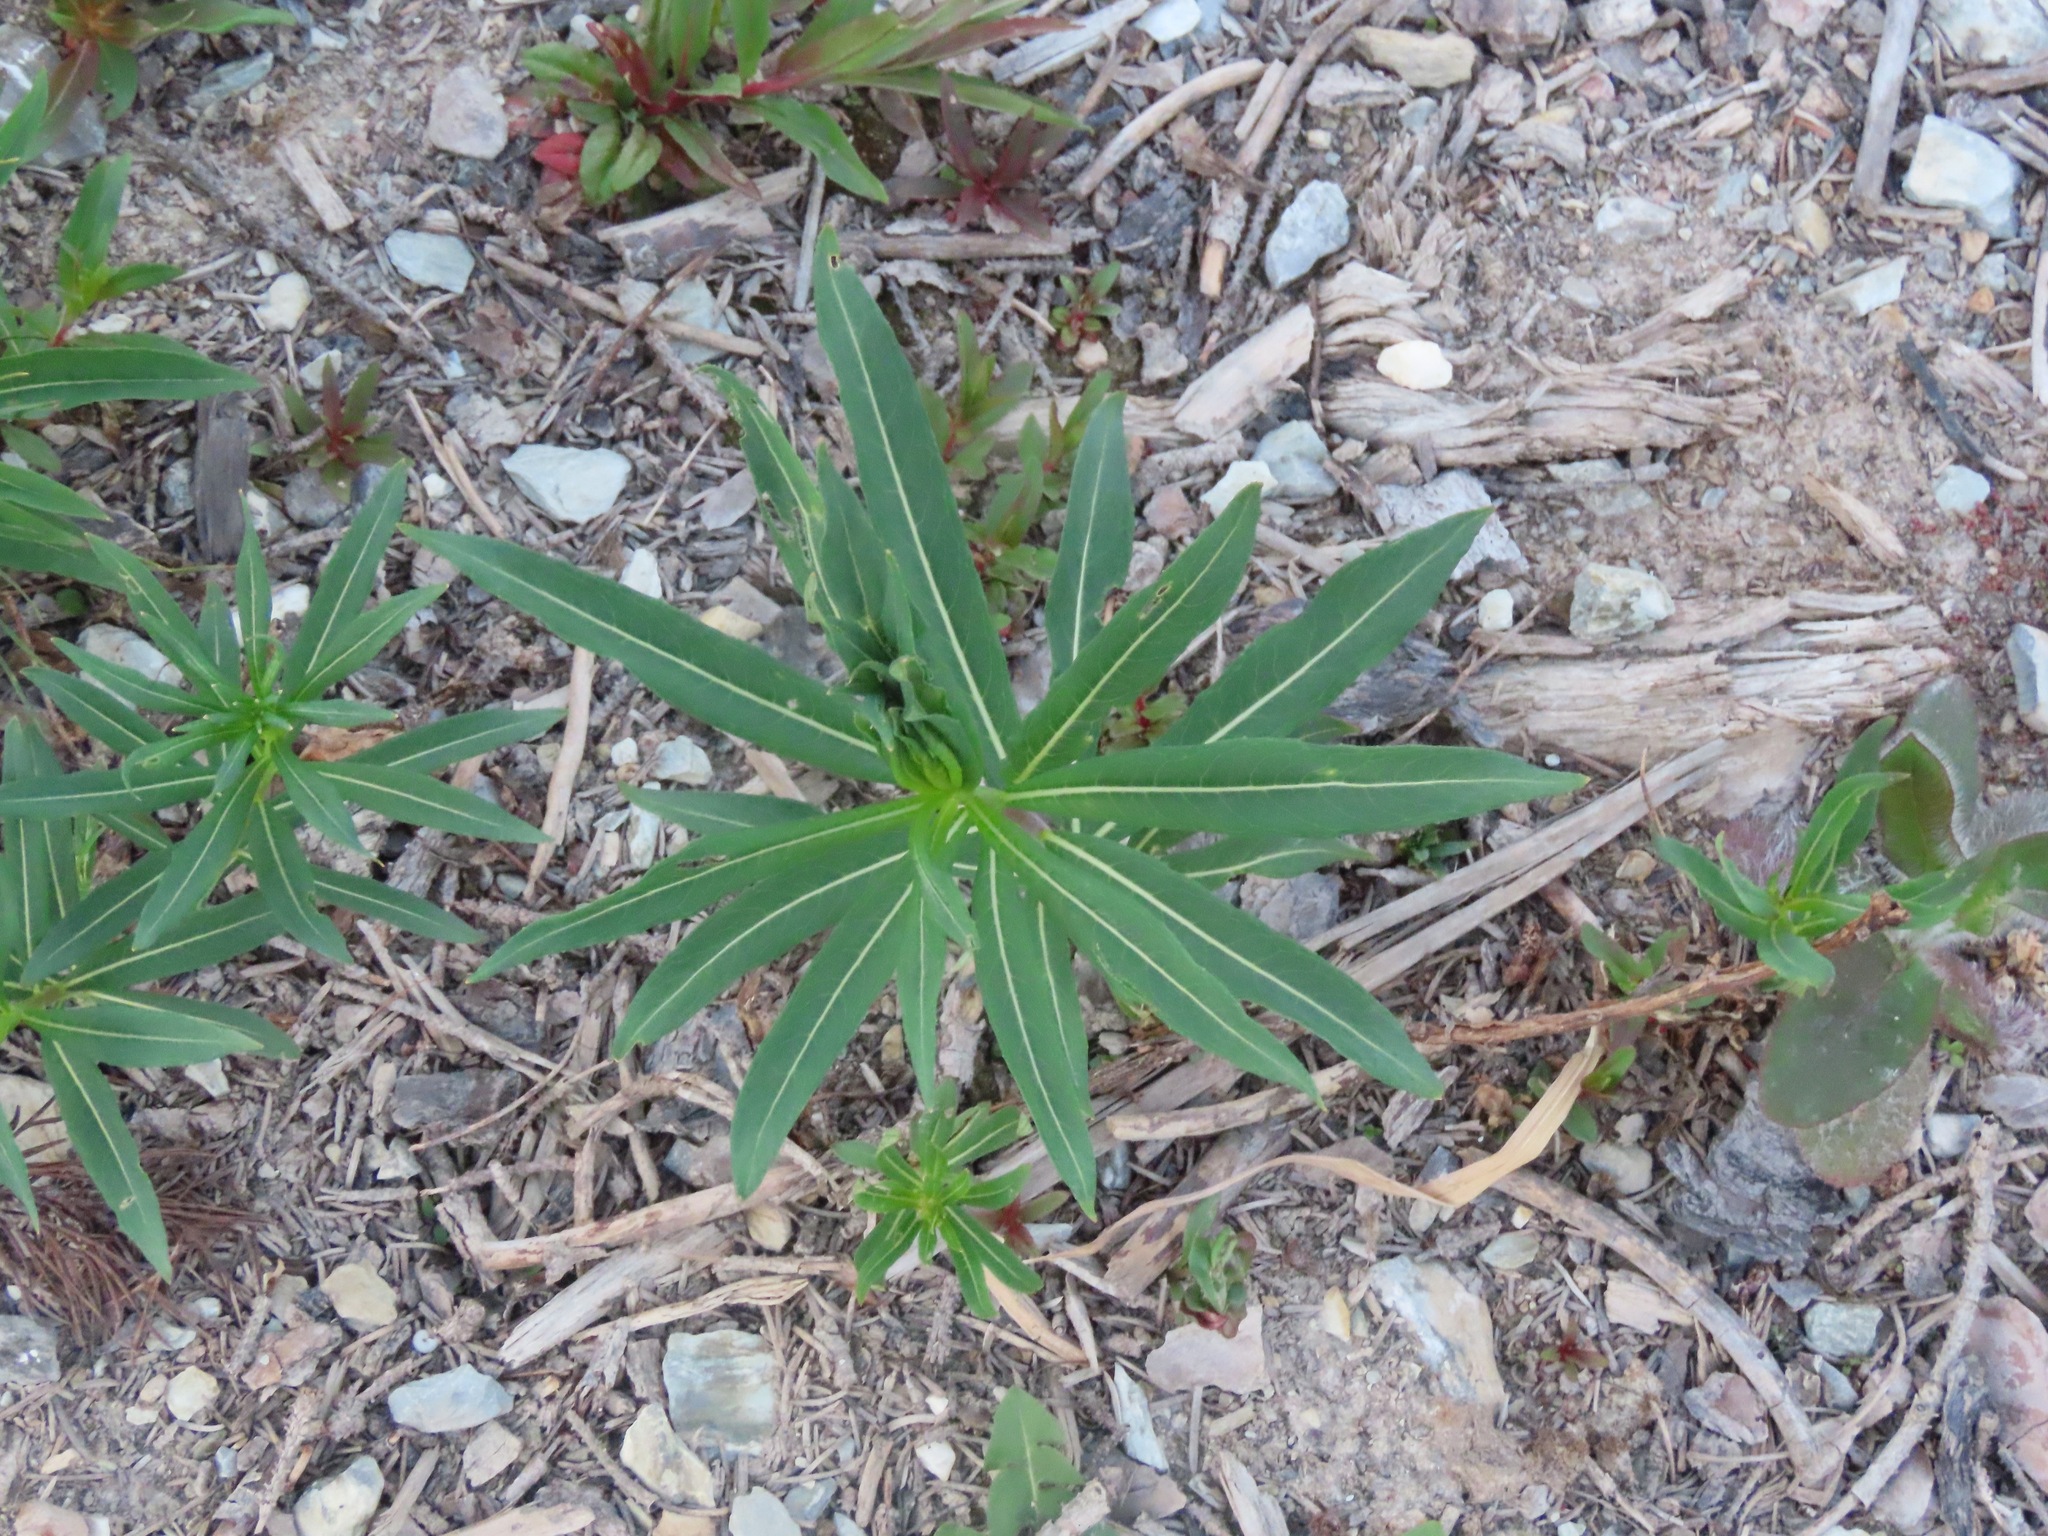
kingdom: Plantae
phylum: Tracheophyta
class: Magnoliopsida
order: Myrtales
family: Onagraceae
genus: Chamaenerion
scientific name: Chamaenerion angustifolium
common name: Fireweed
